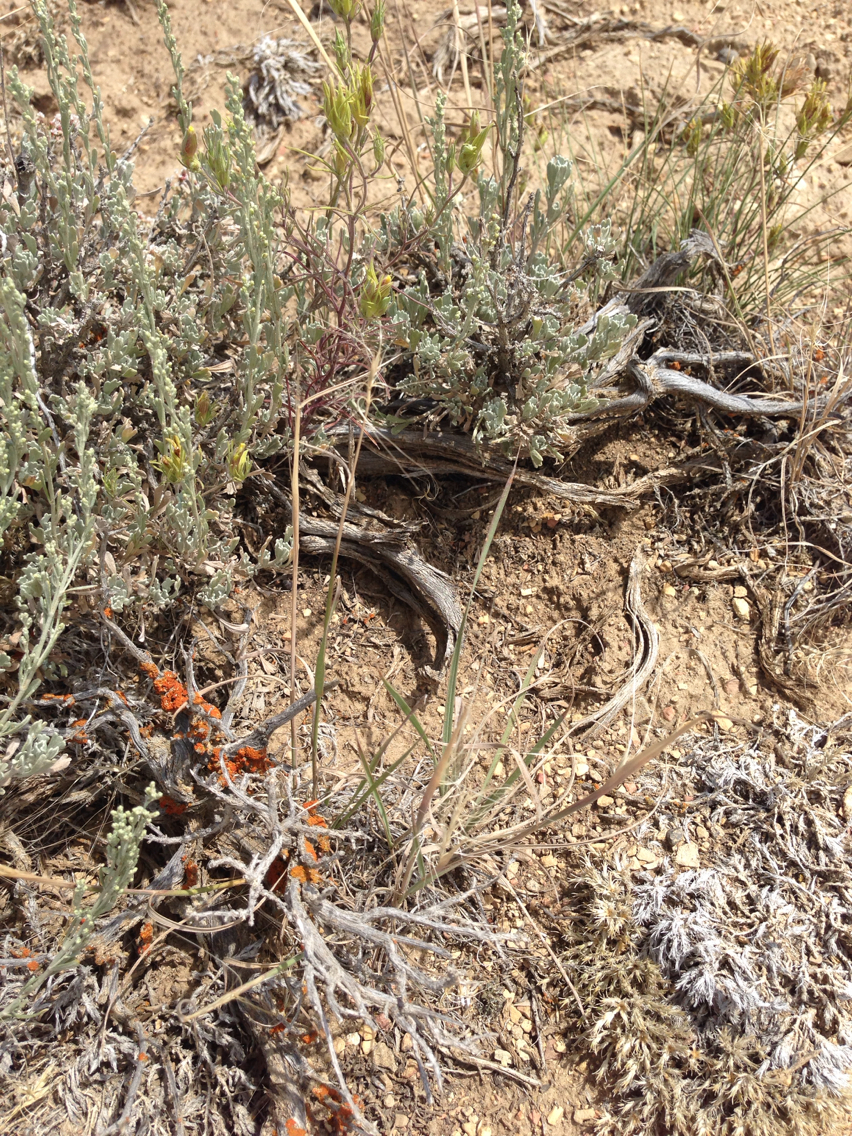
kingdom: Plantae
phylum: Tracheophyta
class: Liliopsida
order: Poales
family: Poaceae
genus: Elymus
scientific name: Elymus elymoides
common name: Bottlebrush squirreltail
